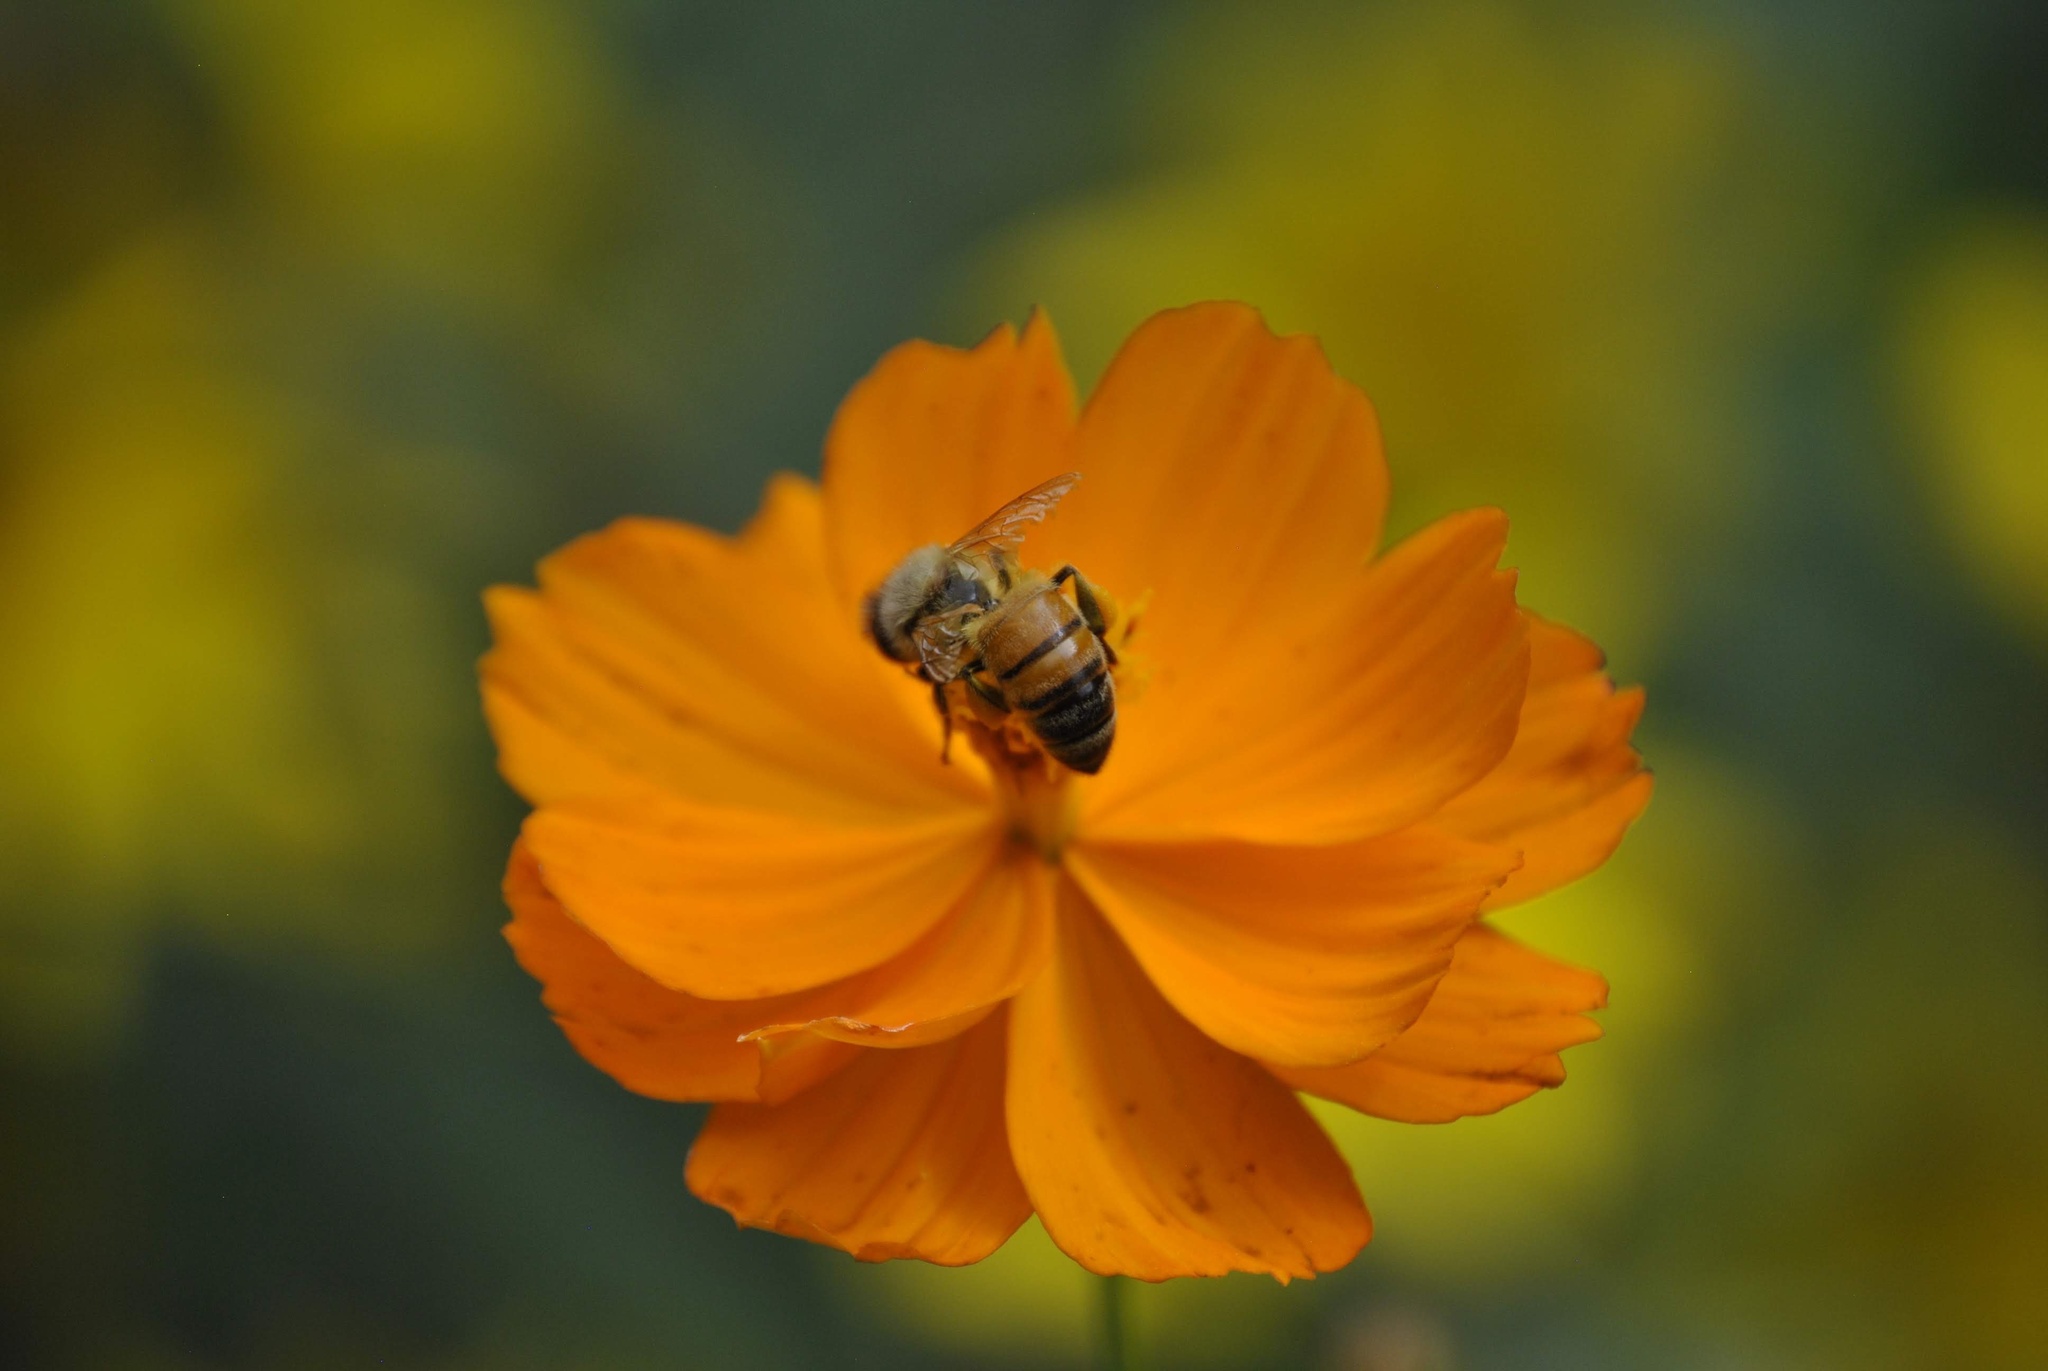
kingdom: Animalia
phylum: Arthropoda
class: Insecta
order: Hymenoptera
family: Apidae
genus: Apis
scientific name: Apis mellifera
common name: Honey bee
